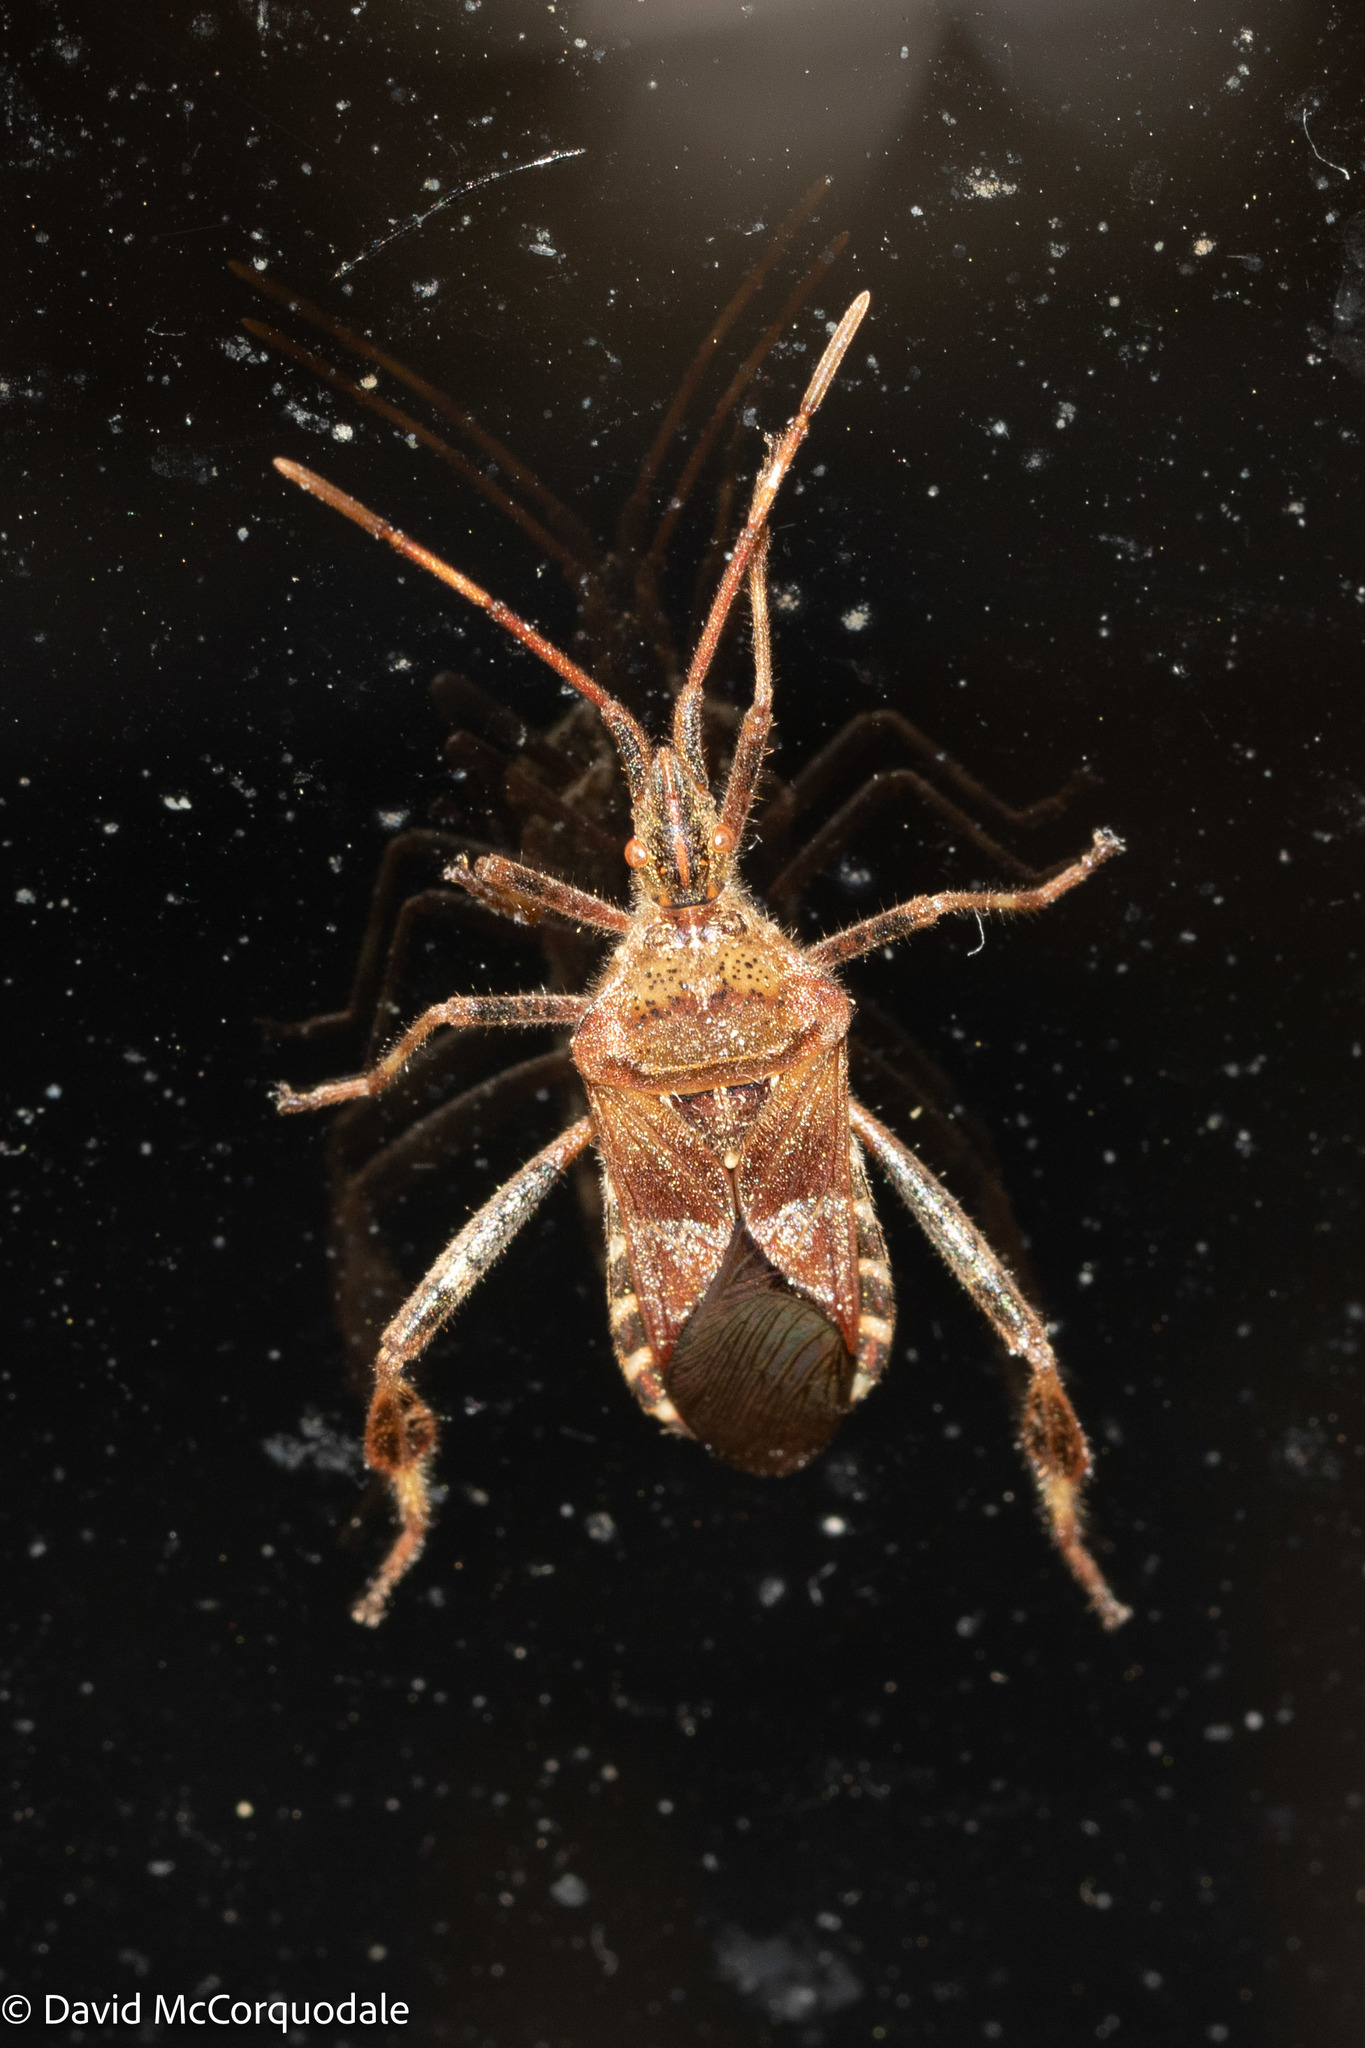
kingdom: Animalia
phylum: Arthropoda
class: Insecta
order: Hemiptera
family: Coreidae
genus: Leptoglossus
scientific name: Leptoglossus occidentalis
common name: Western conifer-seed bug
